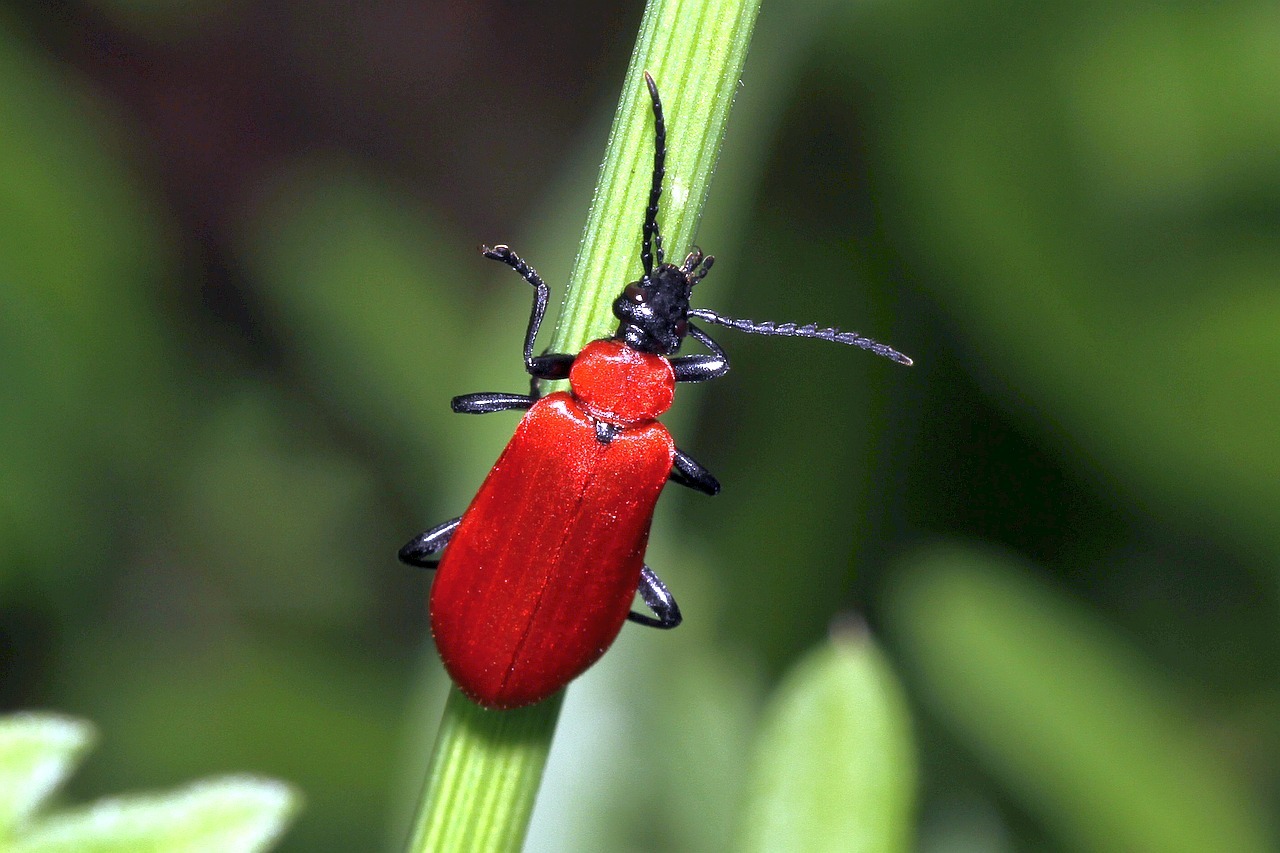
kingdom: Animalia
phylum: Arthropoda
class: Insecta
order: Coleoptera
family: Pyrochroidae
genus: Pyrochroa
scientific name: Pyrochroa coccinea
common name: Black-headed cardinal beetle
